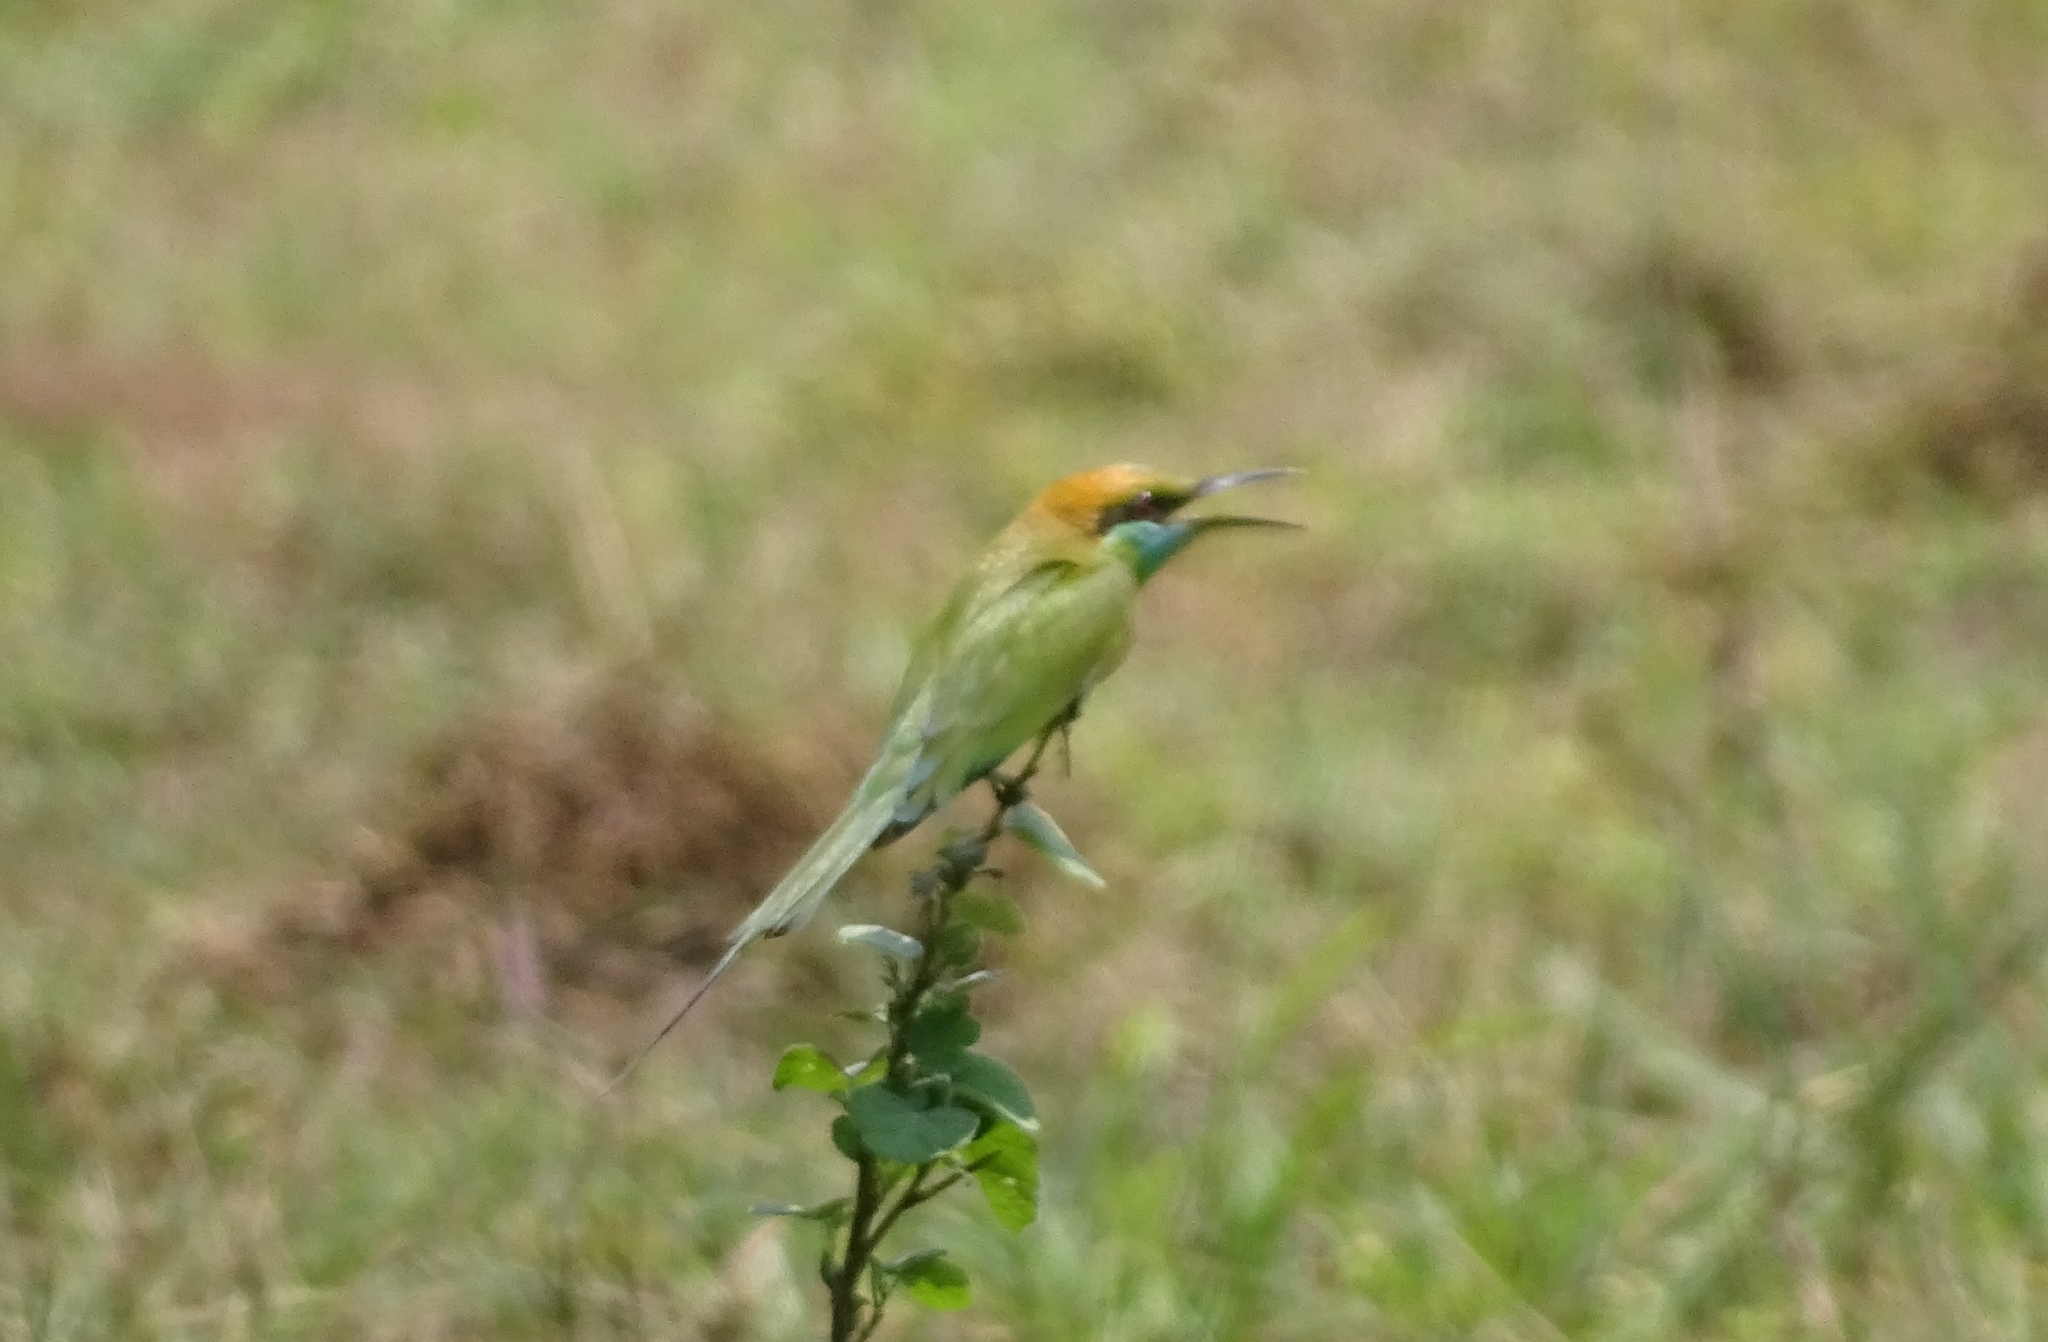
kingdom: Animalia
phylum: Chordata
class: Aves
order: Coraciiformes
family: Meropidae
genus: Merops
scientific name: Merops orientalis
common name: Green bee-eater
